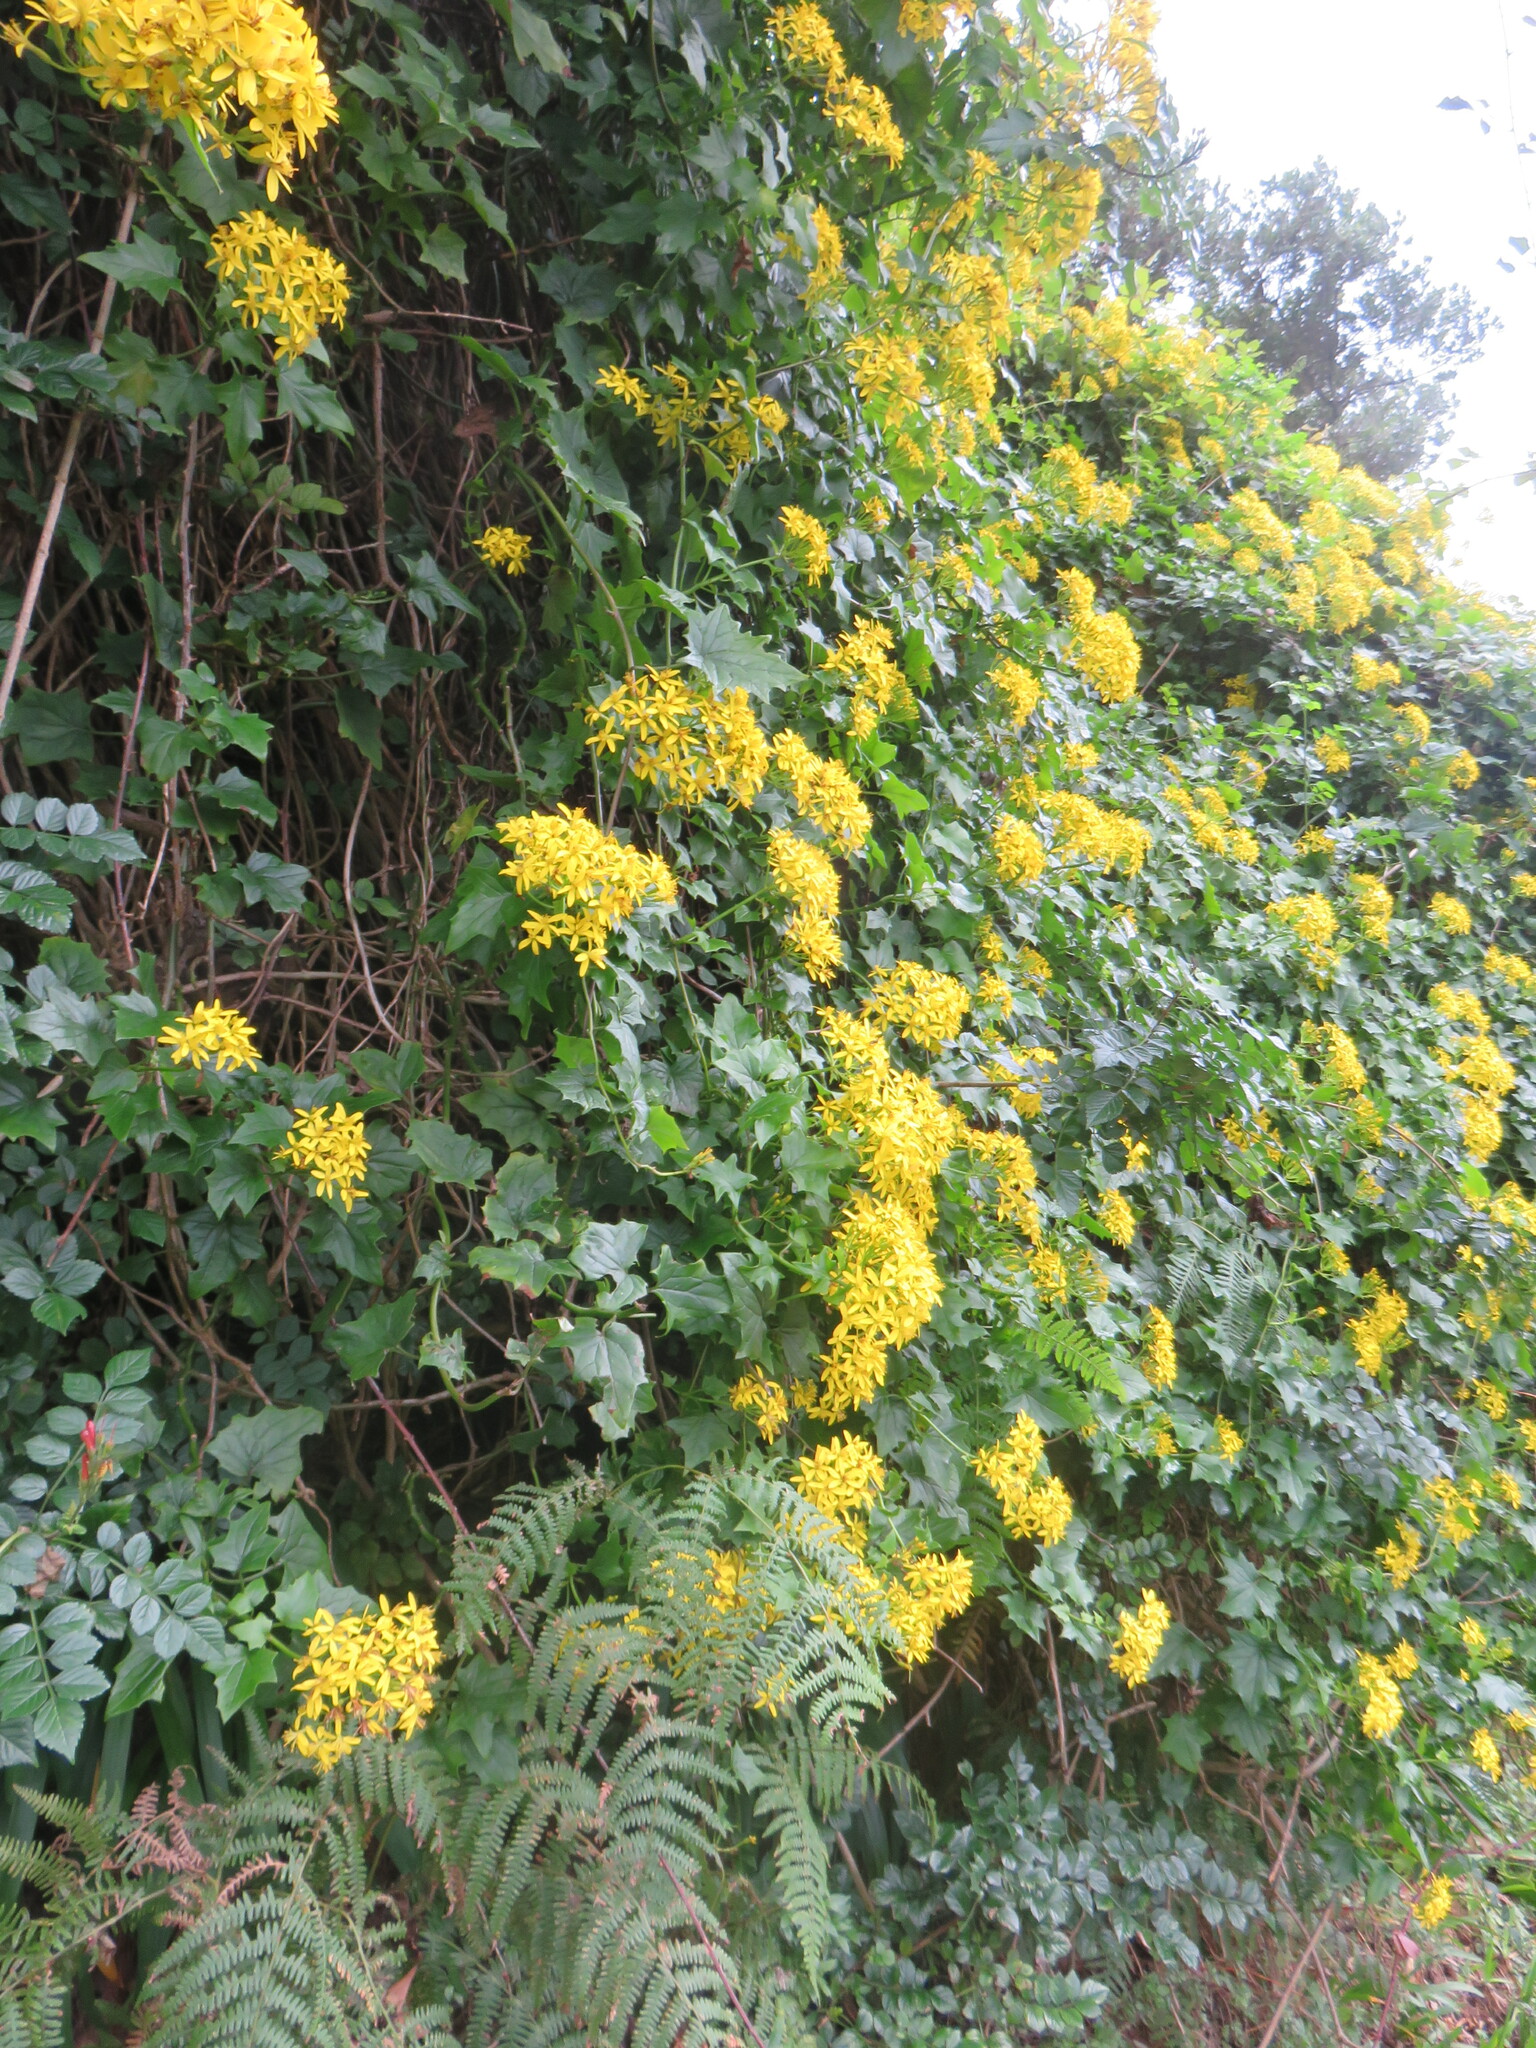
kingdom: Plantae
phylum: Tracheophyta
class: Magnoliopsida
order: Asterales
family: Asteraceae
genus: Delairea
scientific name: Delairea odorata
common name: Cape-ivy
